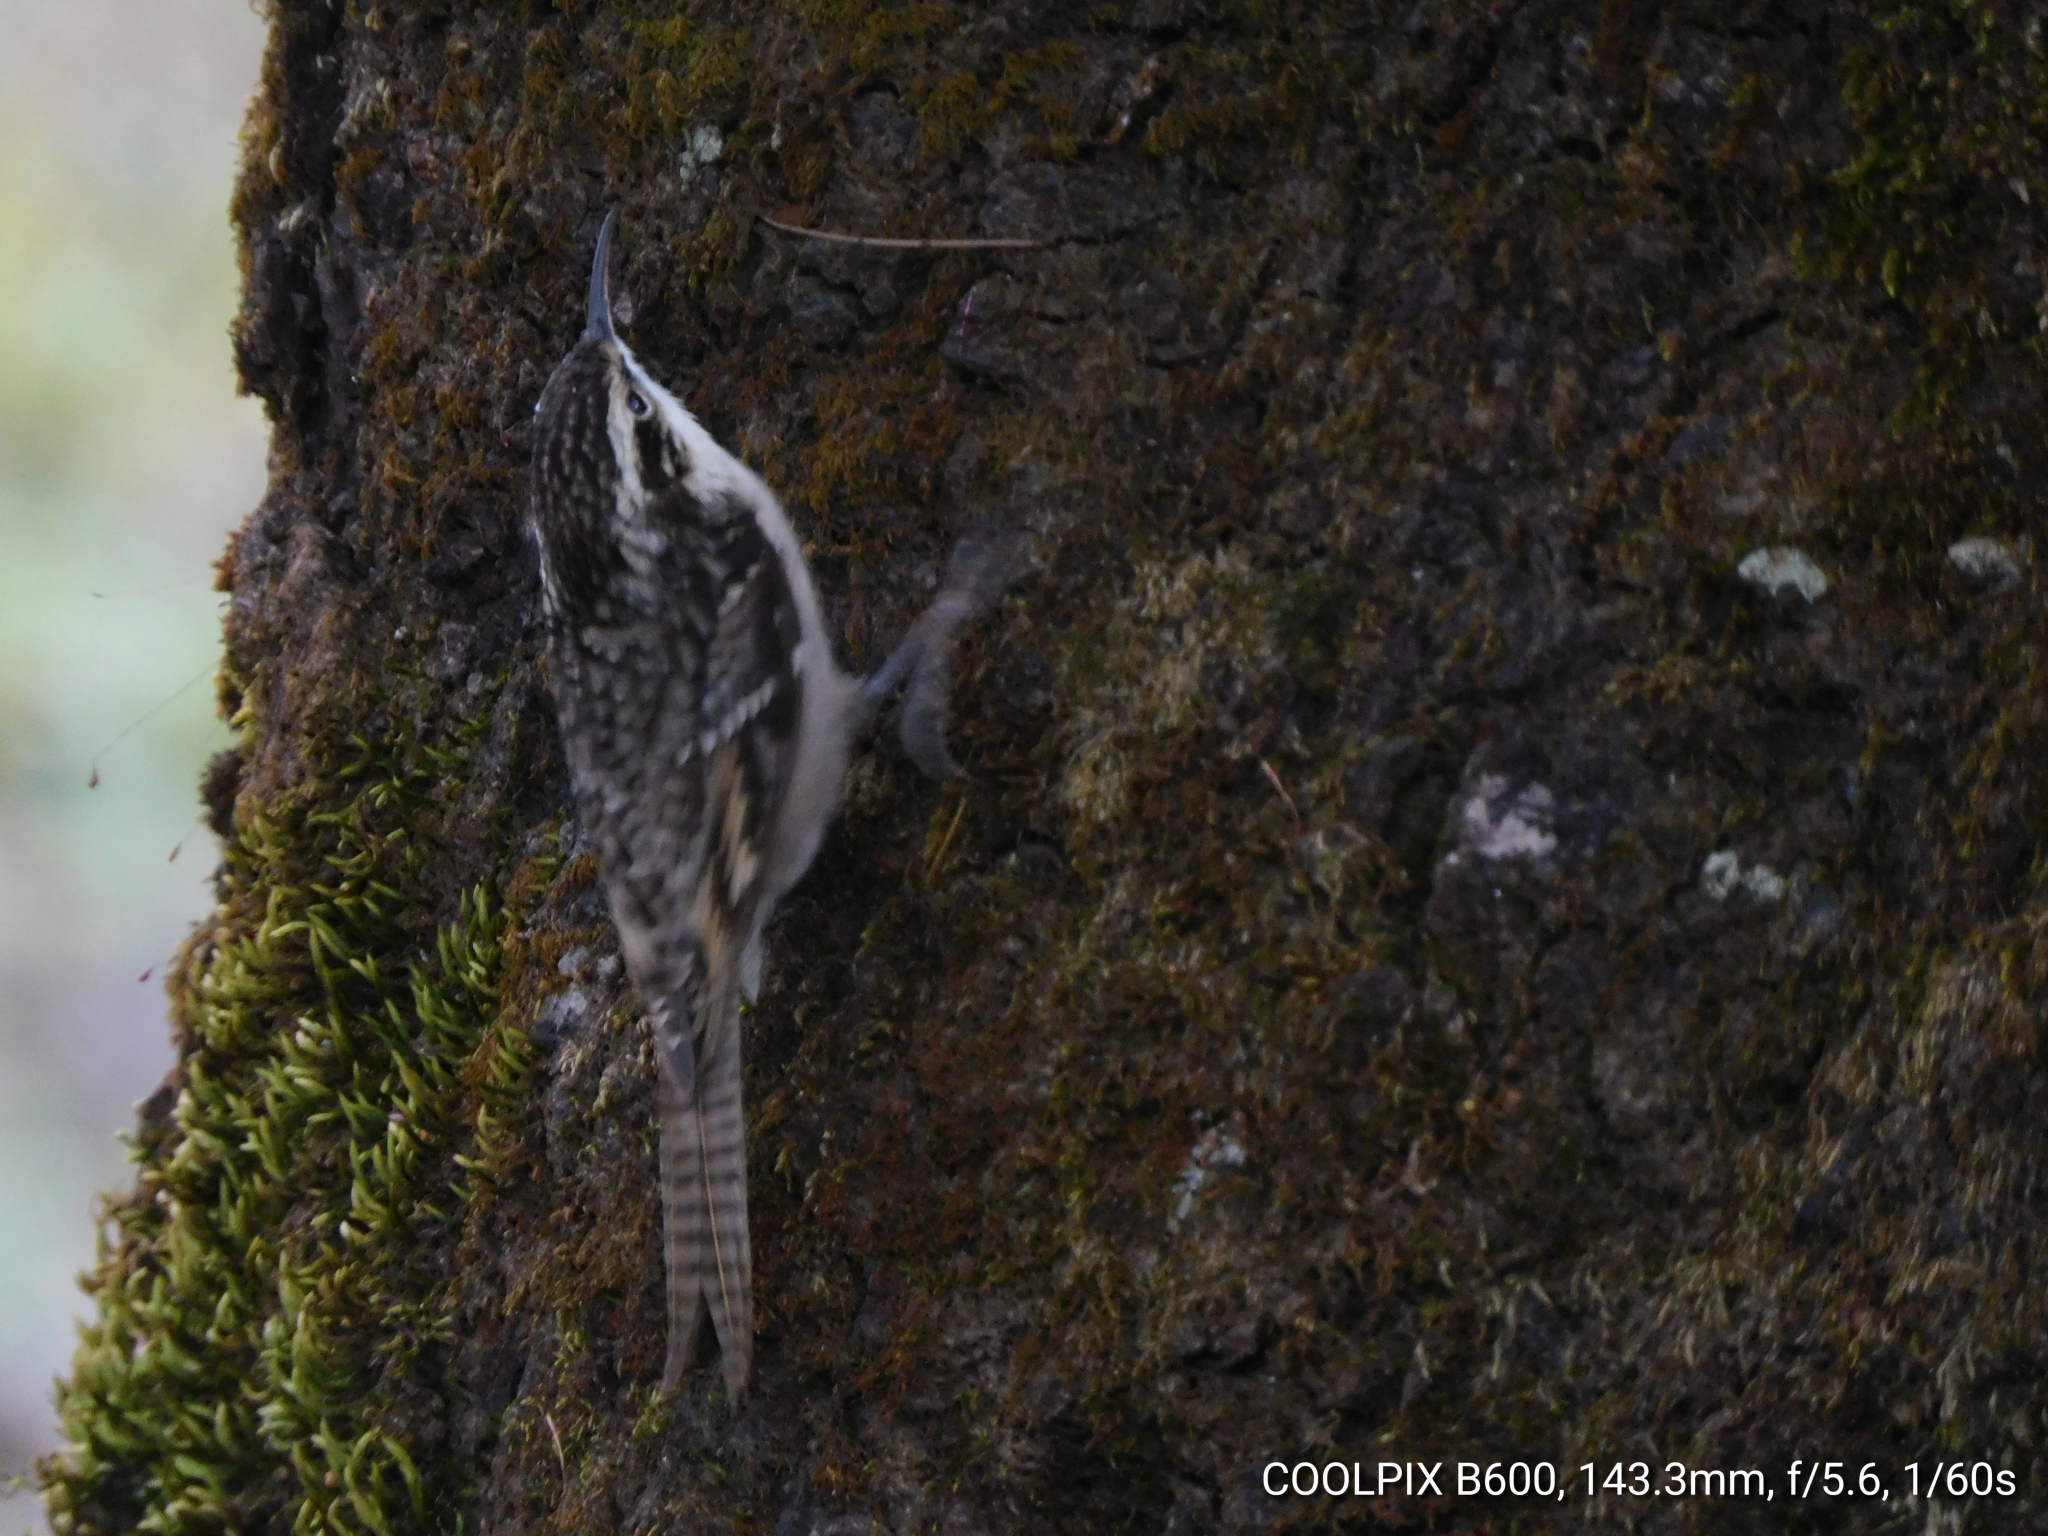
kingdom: Animalia
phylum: Chordata
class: Aves
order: Passeriformes
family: Certhiidae
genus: Certhia
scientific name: Certhia himalayana
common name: Bar-tailed treecreeper
